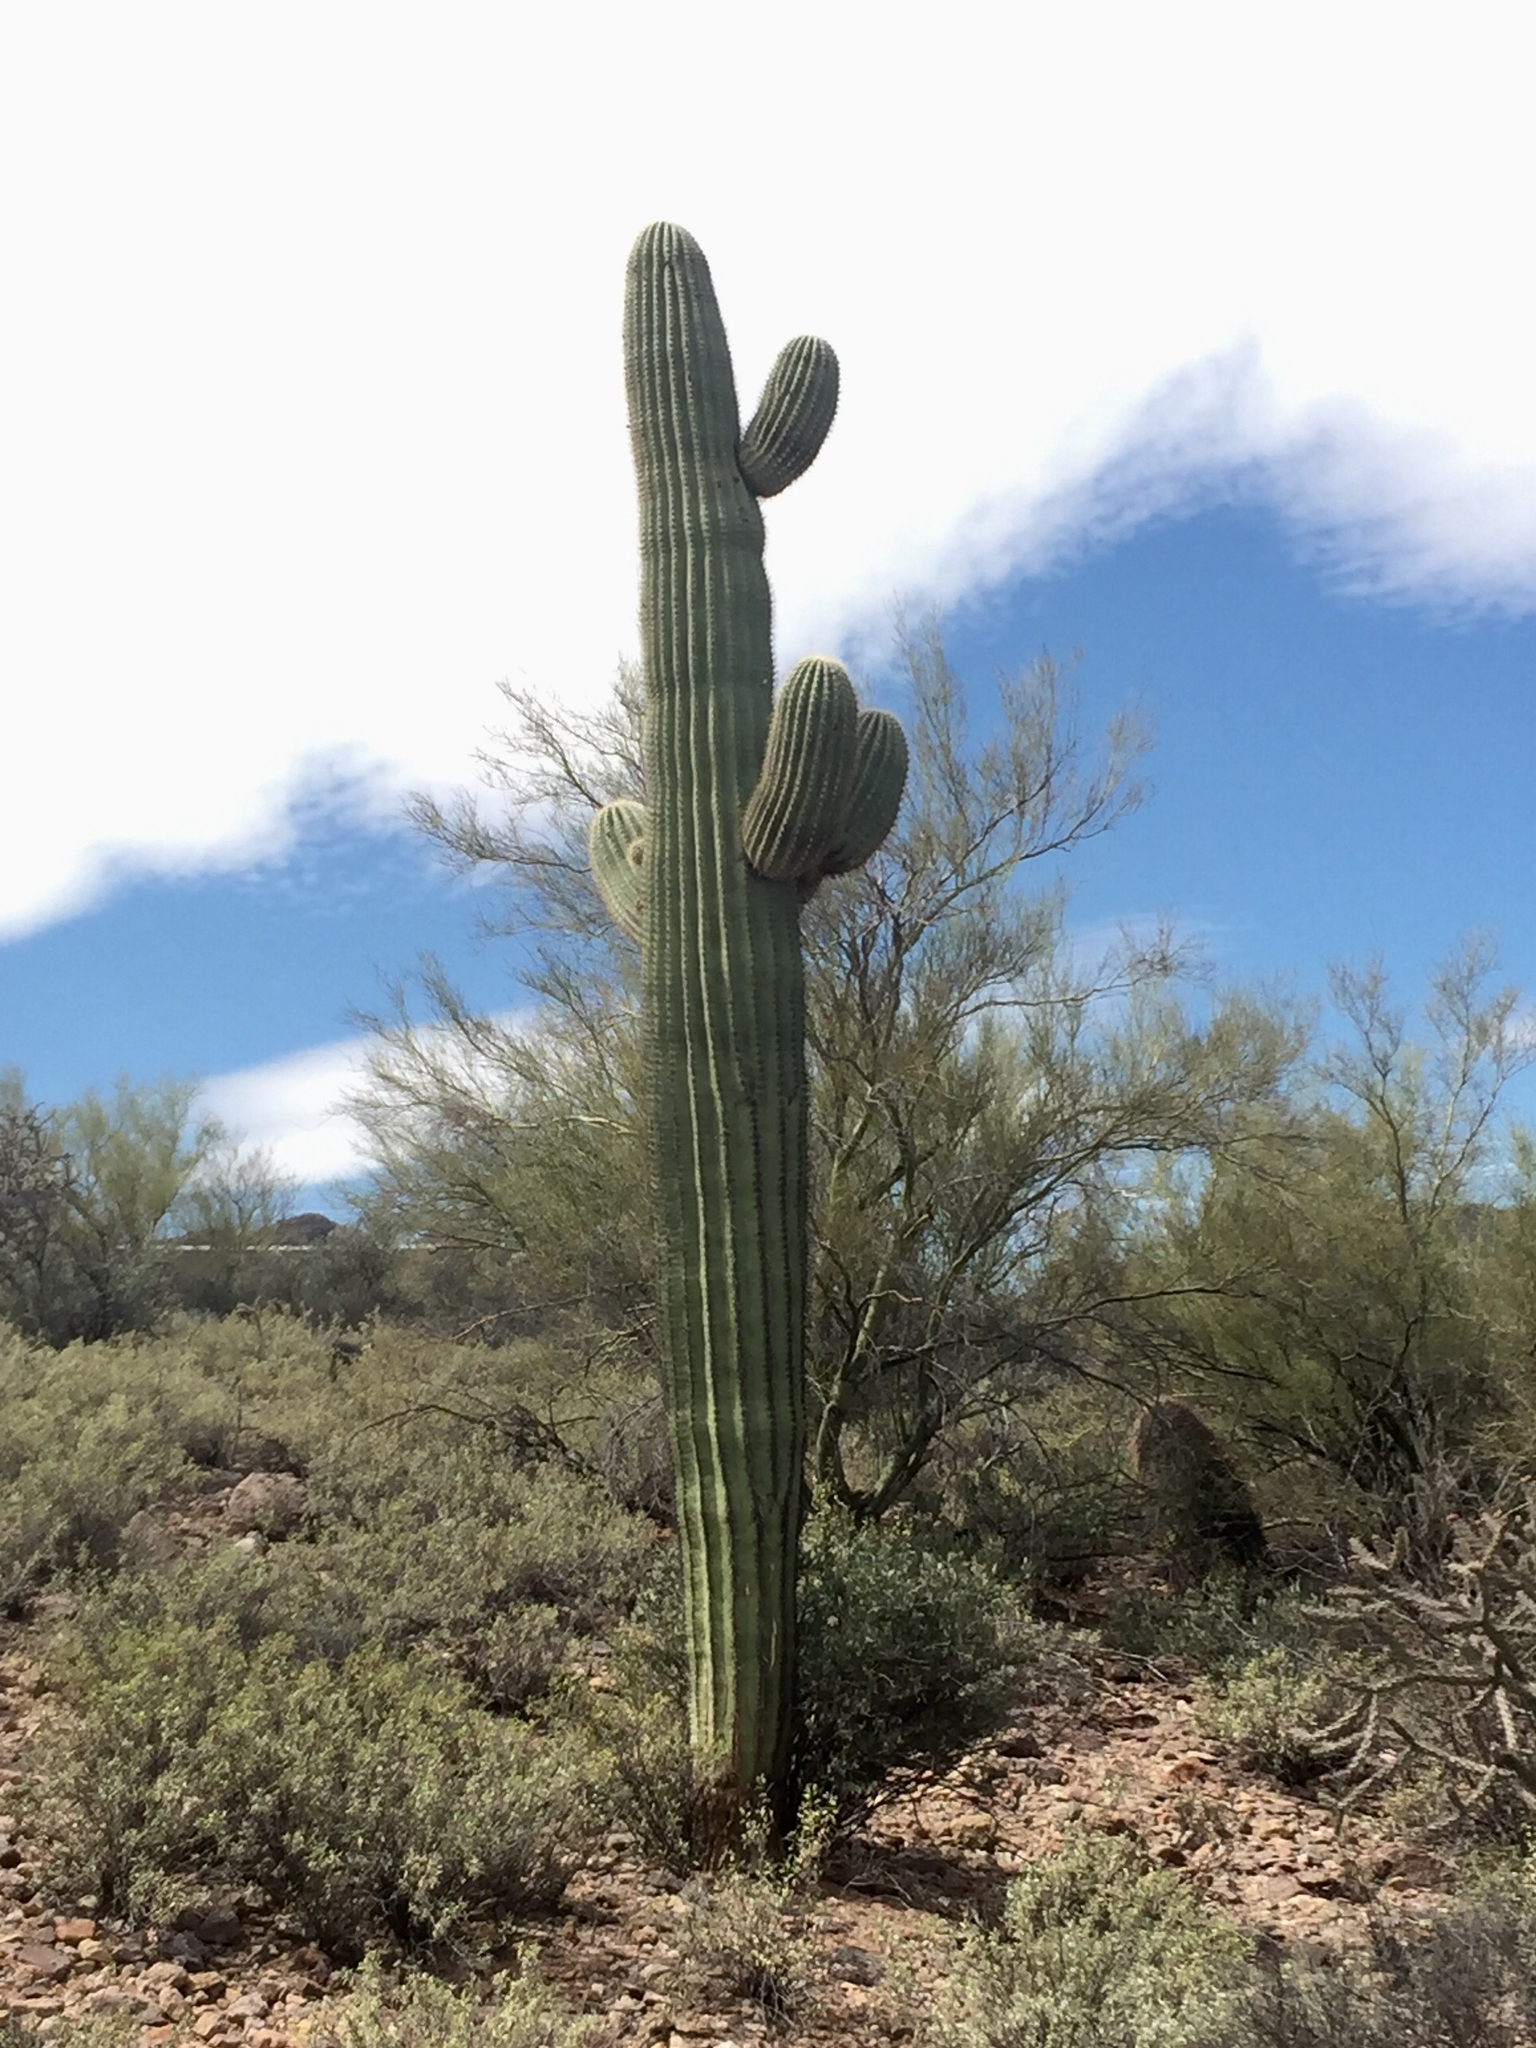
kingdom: Plantae
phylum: Tracheophyta
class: Magnoliopsida
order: Caryophyllales
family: Cactaceae
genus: Carnegiea
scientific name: Carnegiea gigantea
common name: Saguaro
